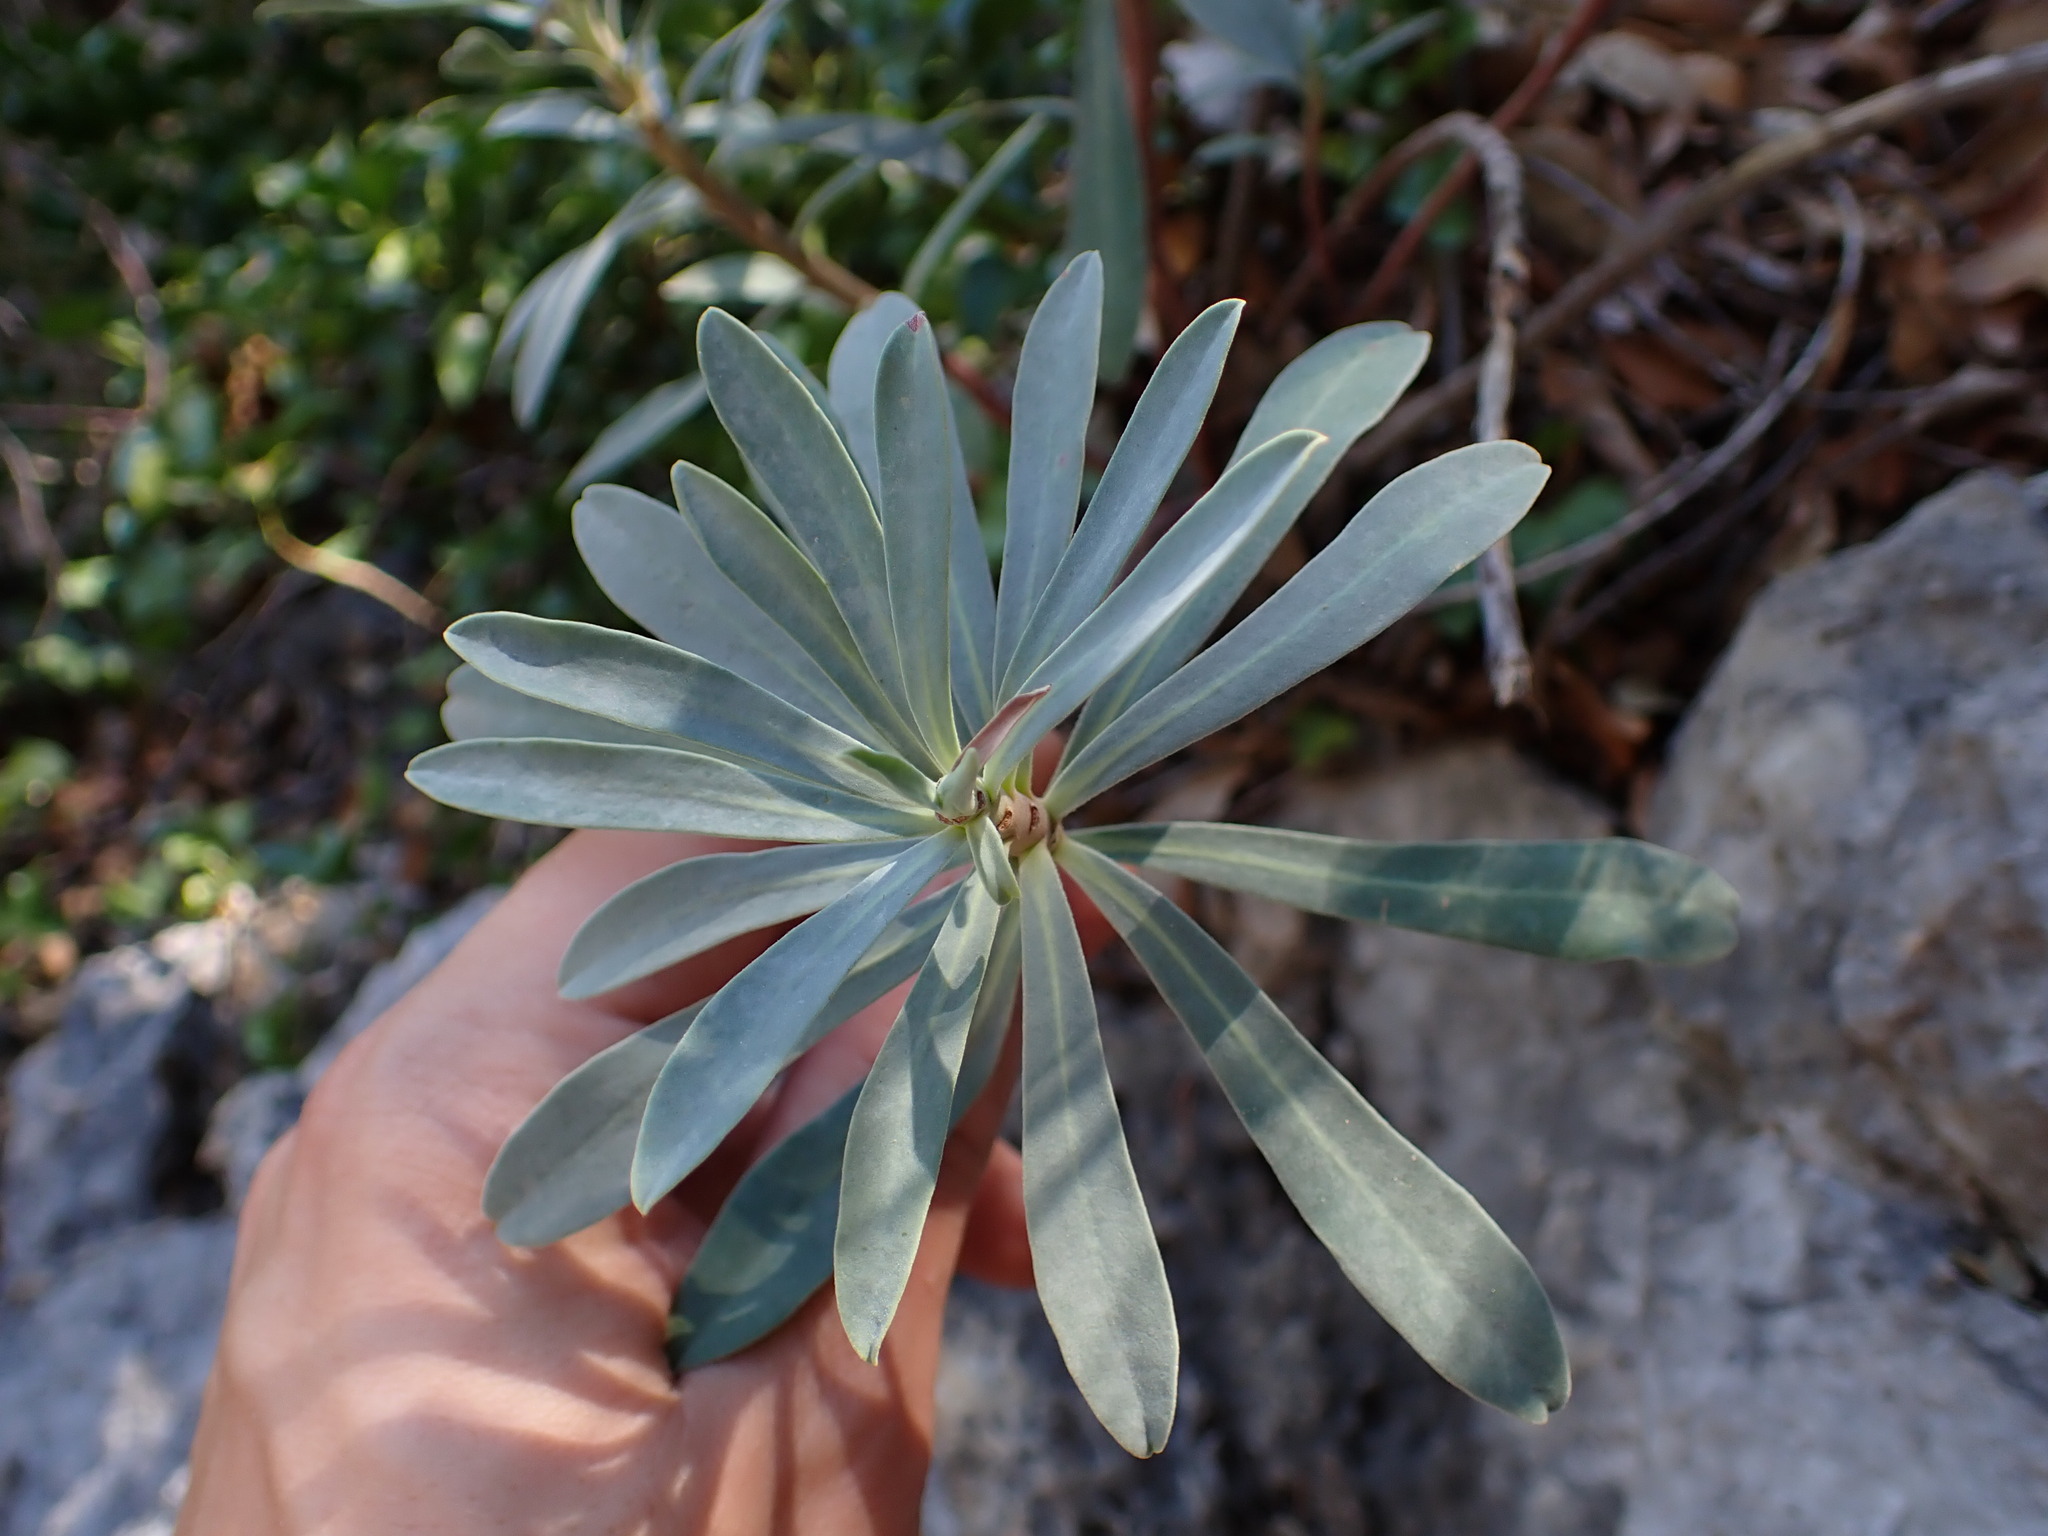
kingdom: Plantae
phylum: Tracheophyta
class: Magnoliopsida
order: Malpighiales
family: Euphorbiaceae
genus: Euphorbia
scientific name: Euphorbia characias
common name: Mediterranean spurge
